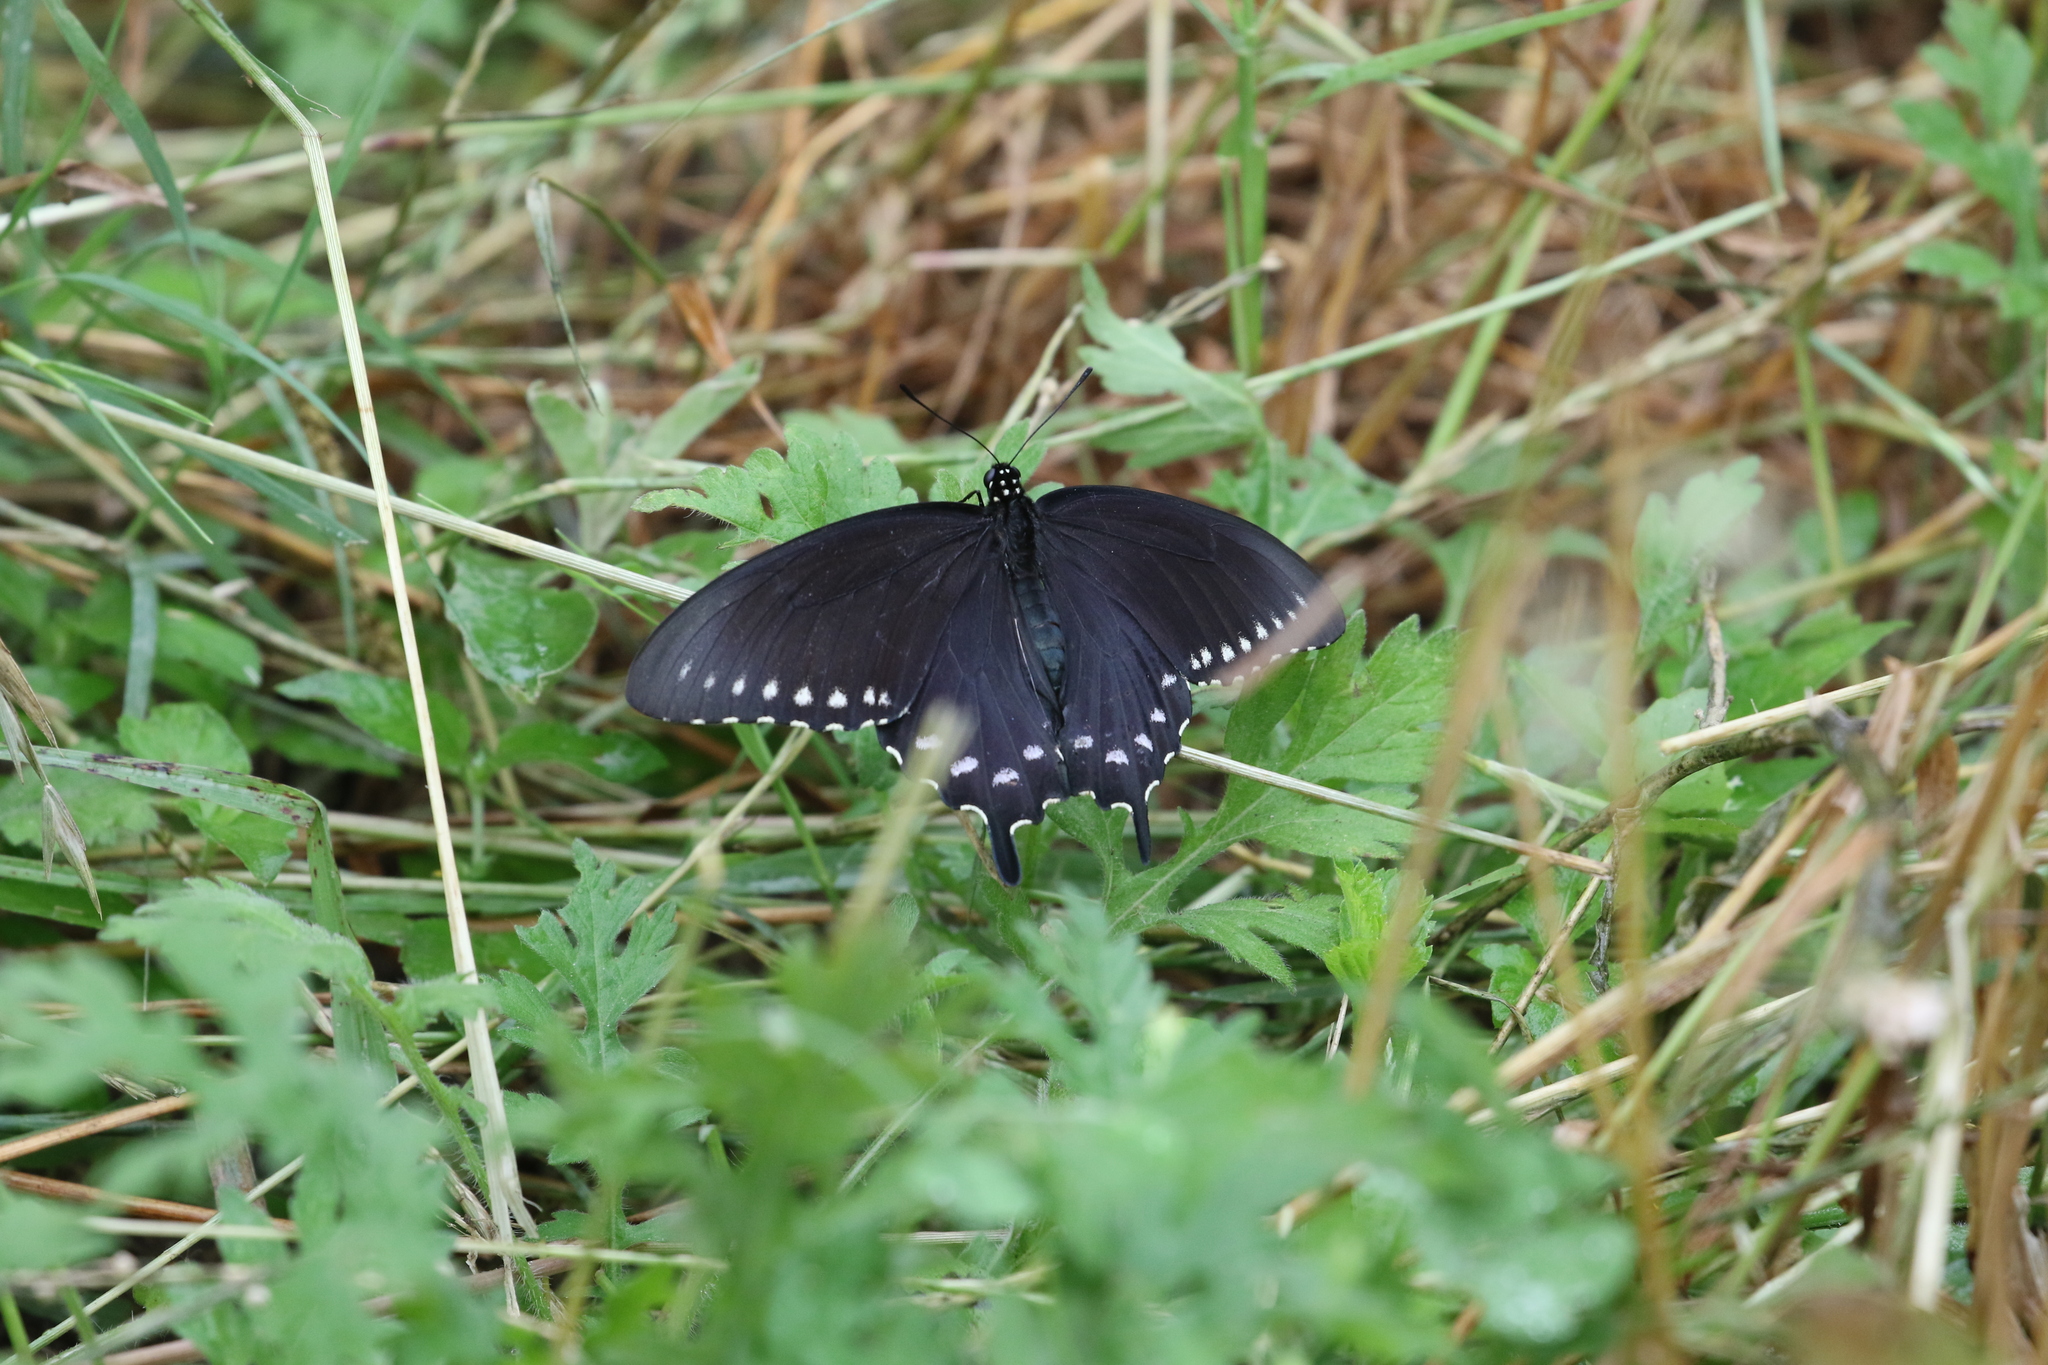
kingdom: Animalia
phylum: Arthropoda
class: Insecta
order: Lepidoptera
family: Papilionidae
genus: Battus
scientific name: Battus philenor
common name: Pipevine swallowtail
